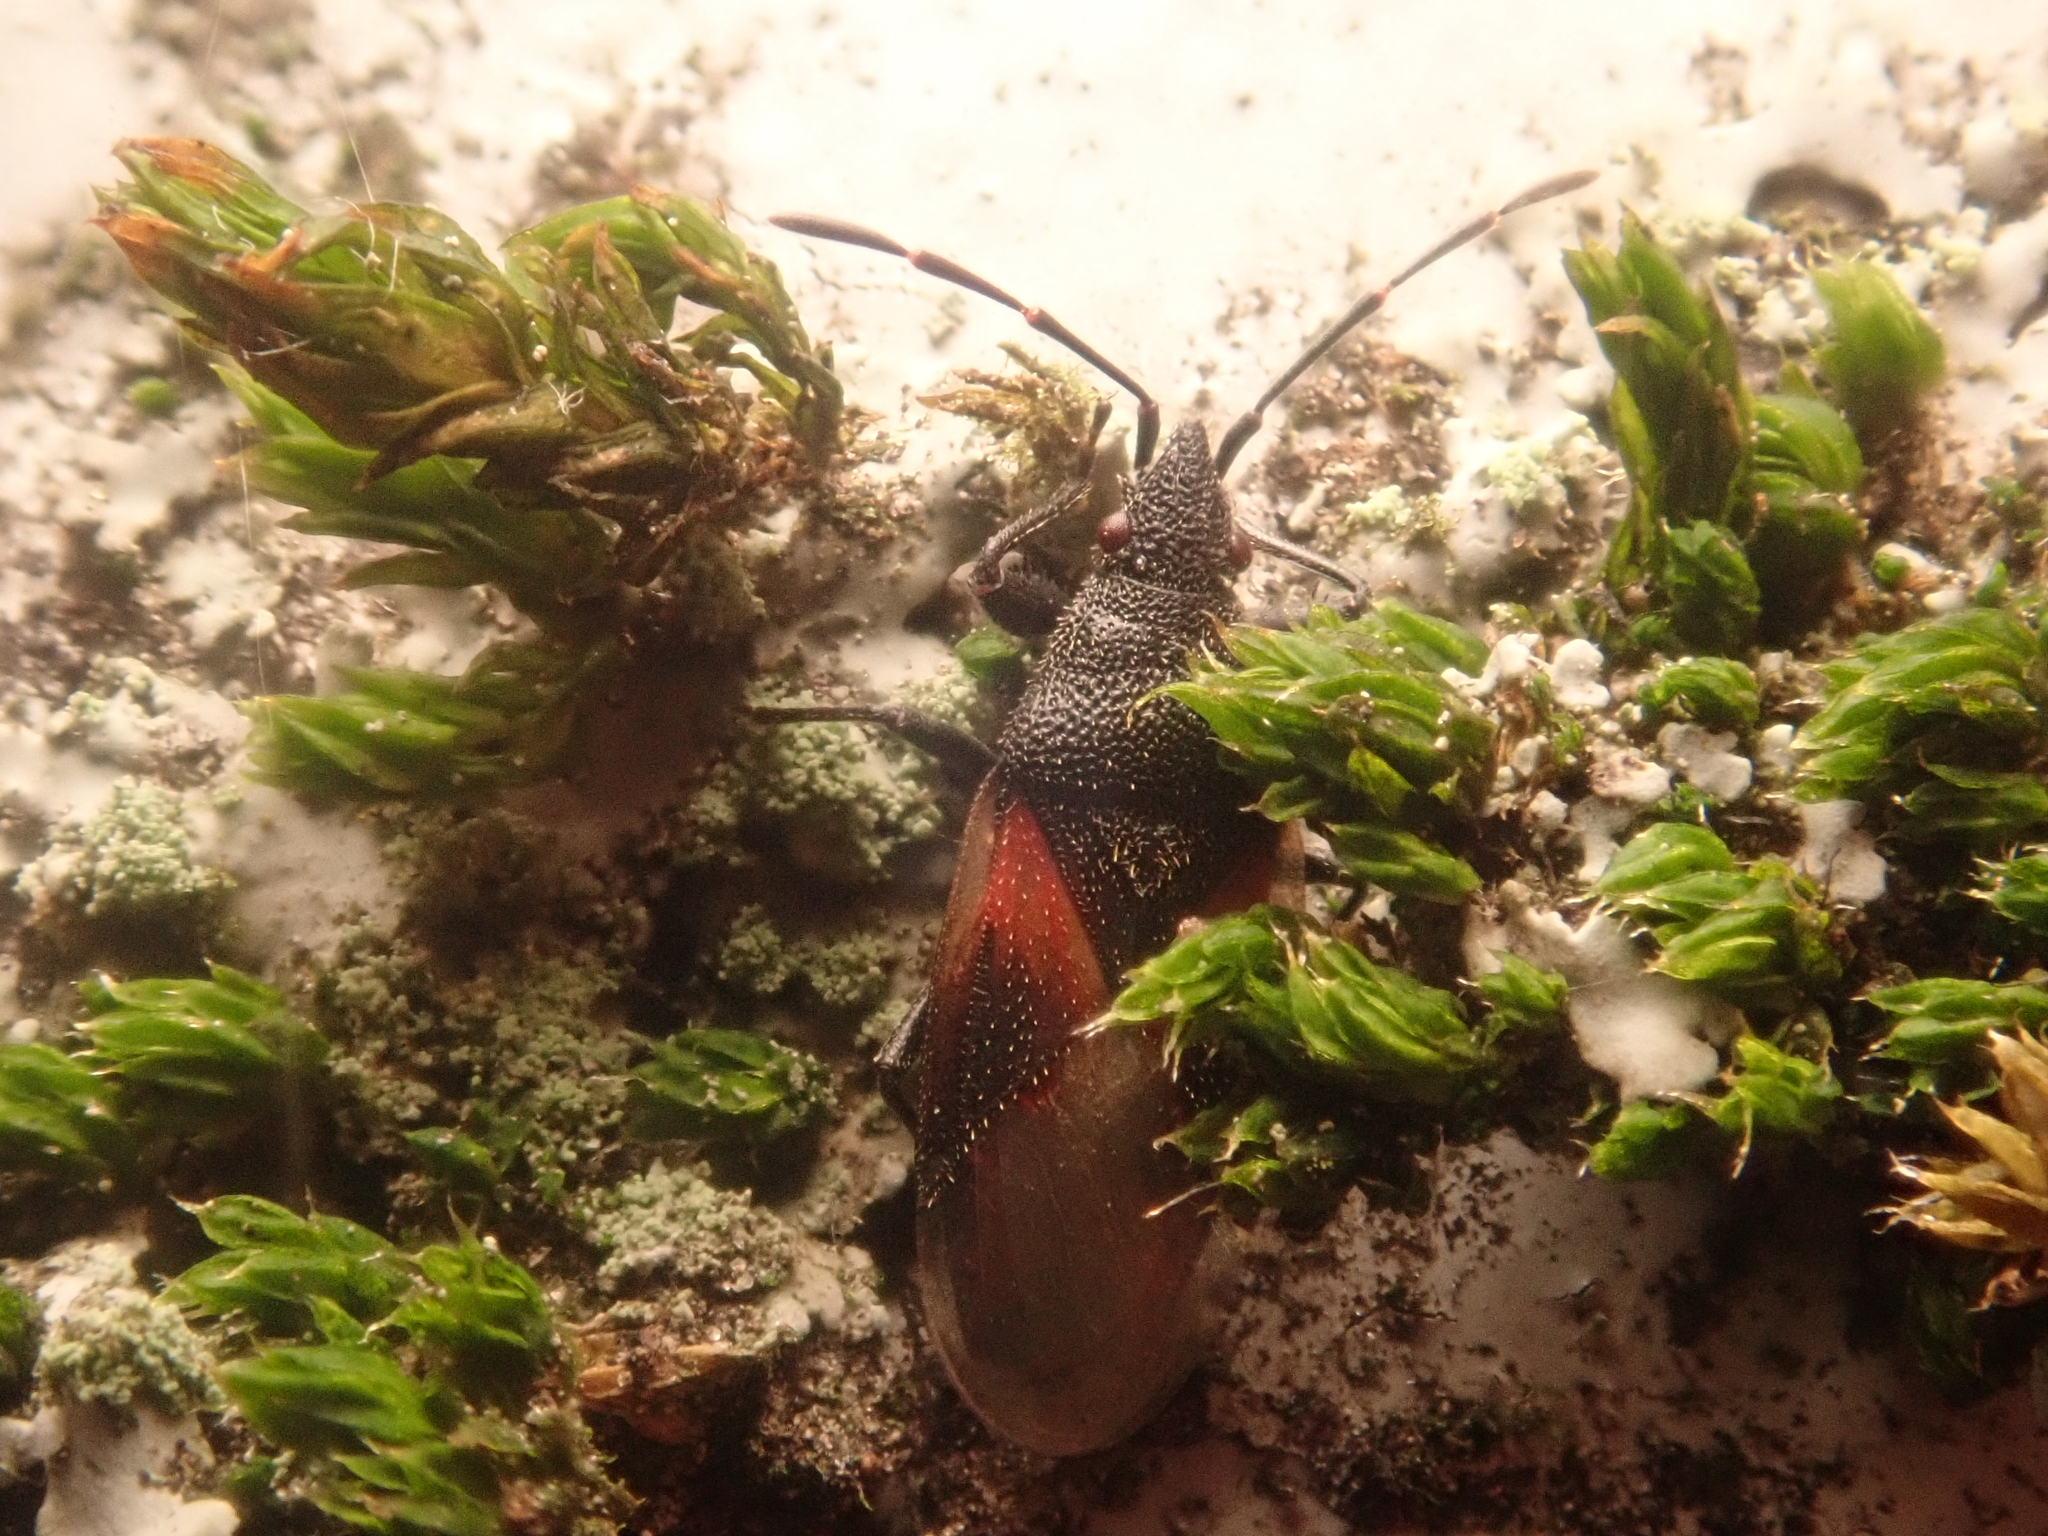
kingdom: Animalia
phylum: Arthropoda
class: Insecta
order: Hemiptera
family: Oxycarenidae
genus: Oxycarenus
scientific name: Oxycarenus lavaterae
